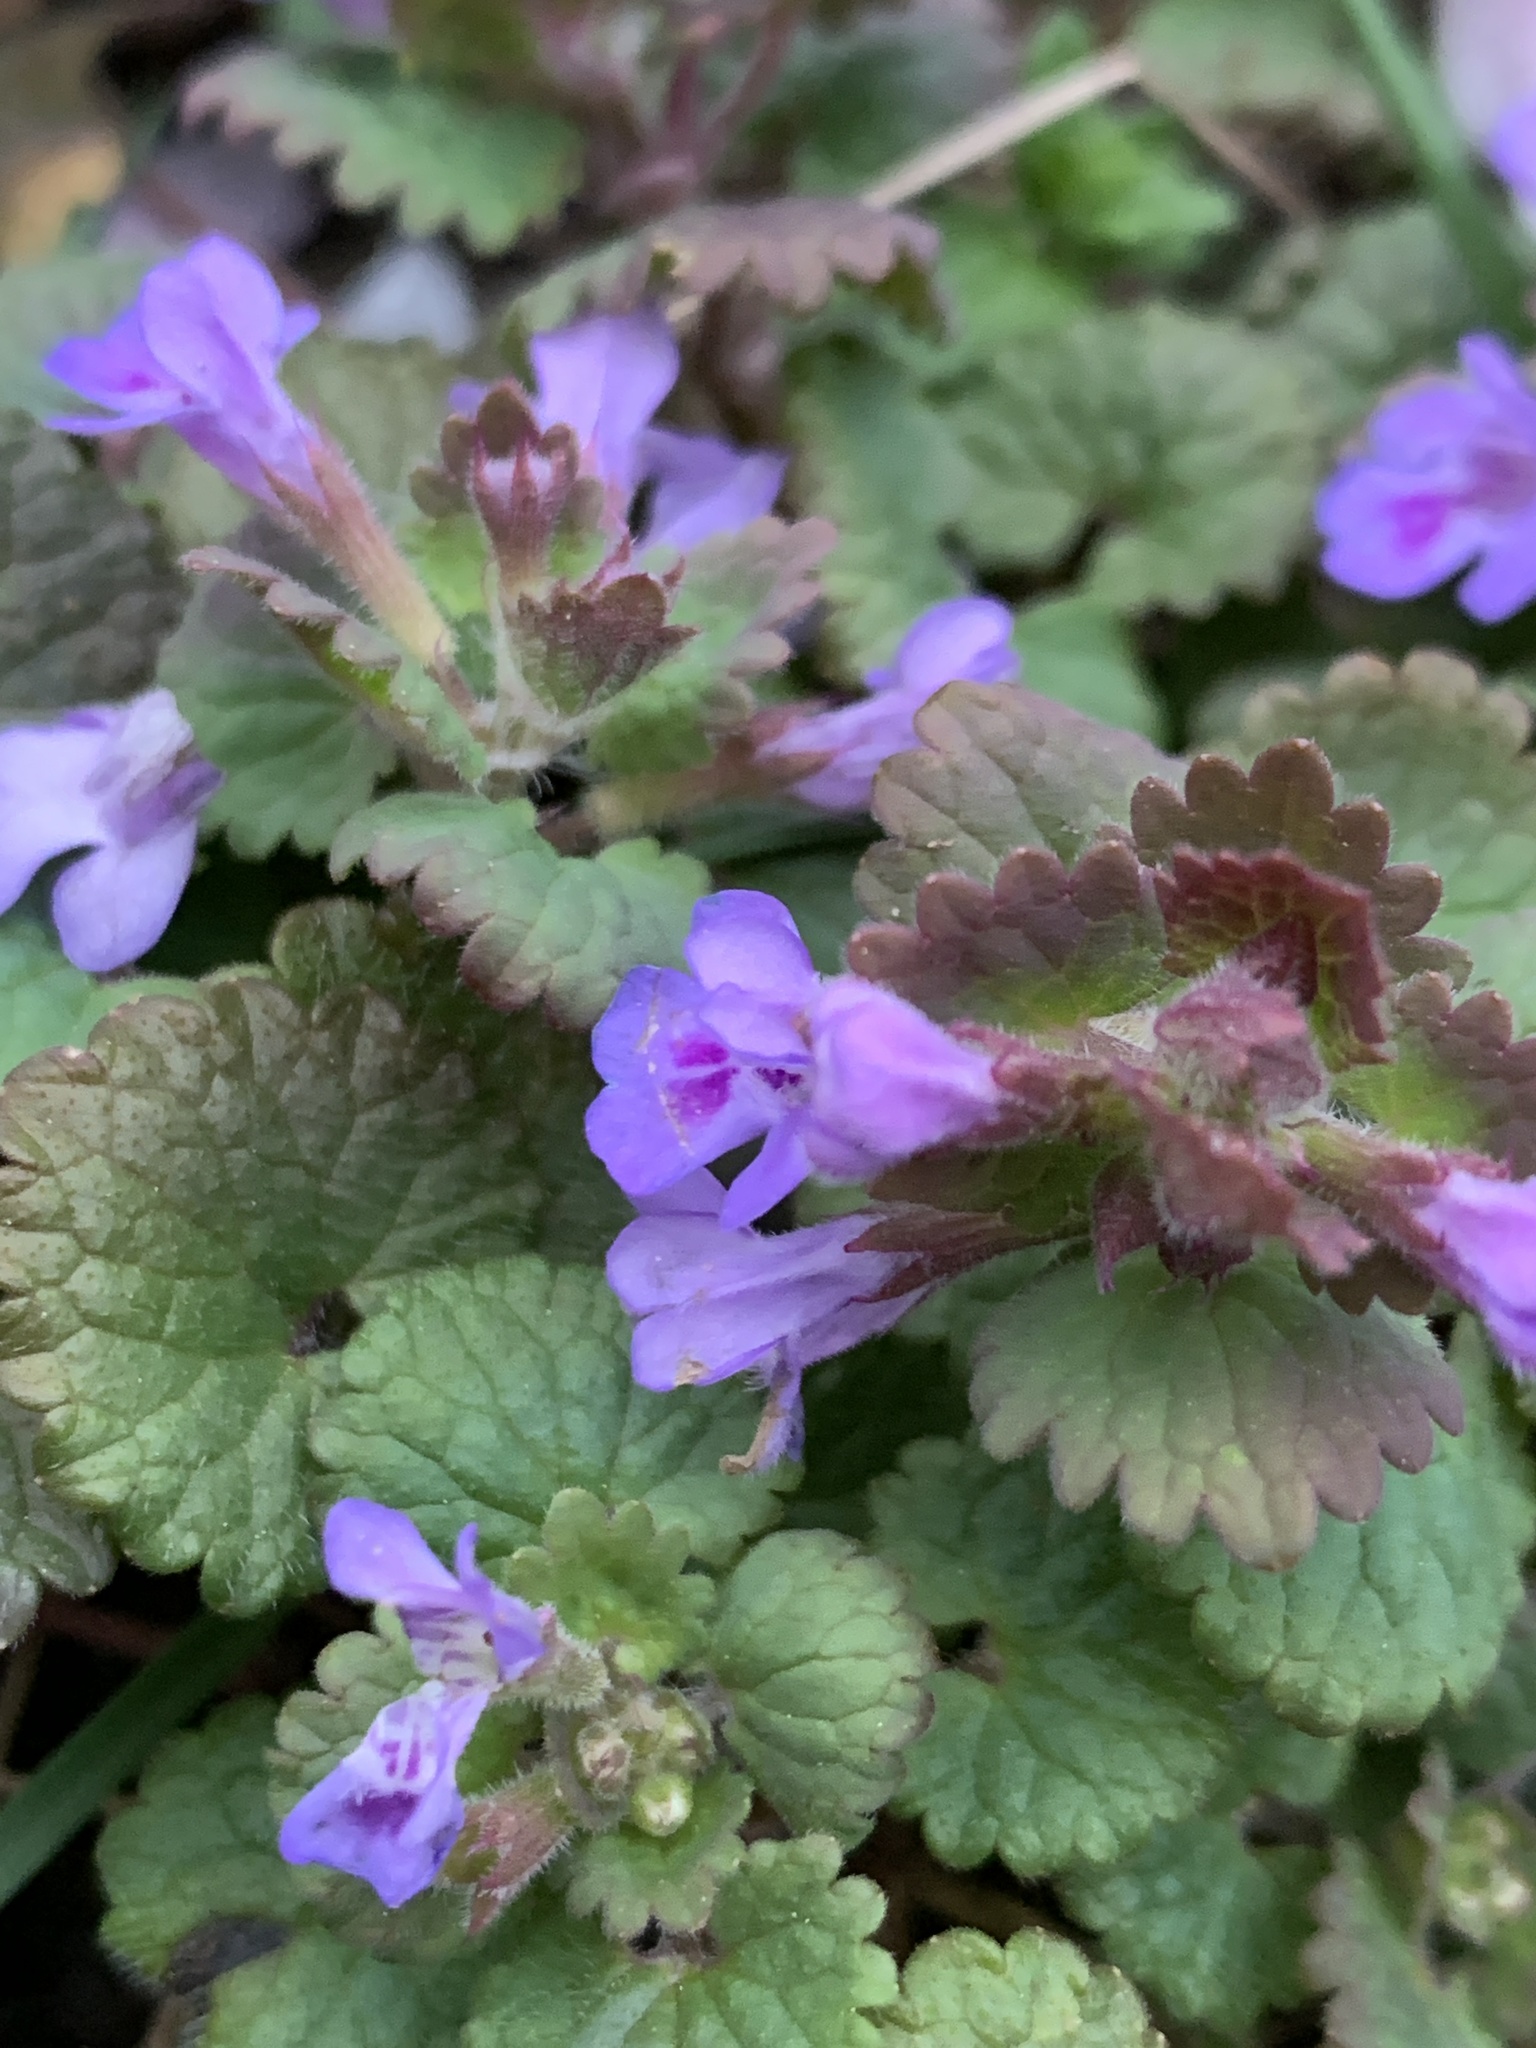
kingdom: Plantae
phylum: Tracheophyta
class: Magnoliopsida
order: Lamiales
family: Lamiaceae
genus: Glechoma
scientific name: Glechoma hederacea
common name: Ground ivy
